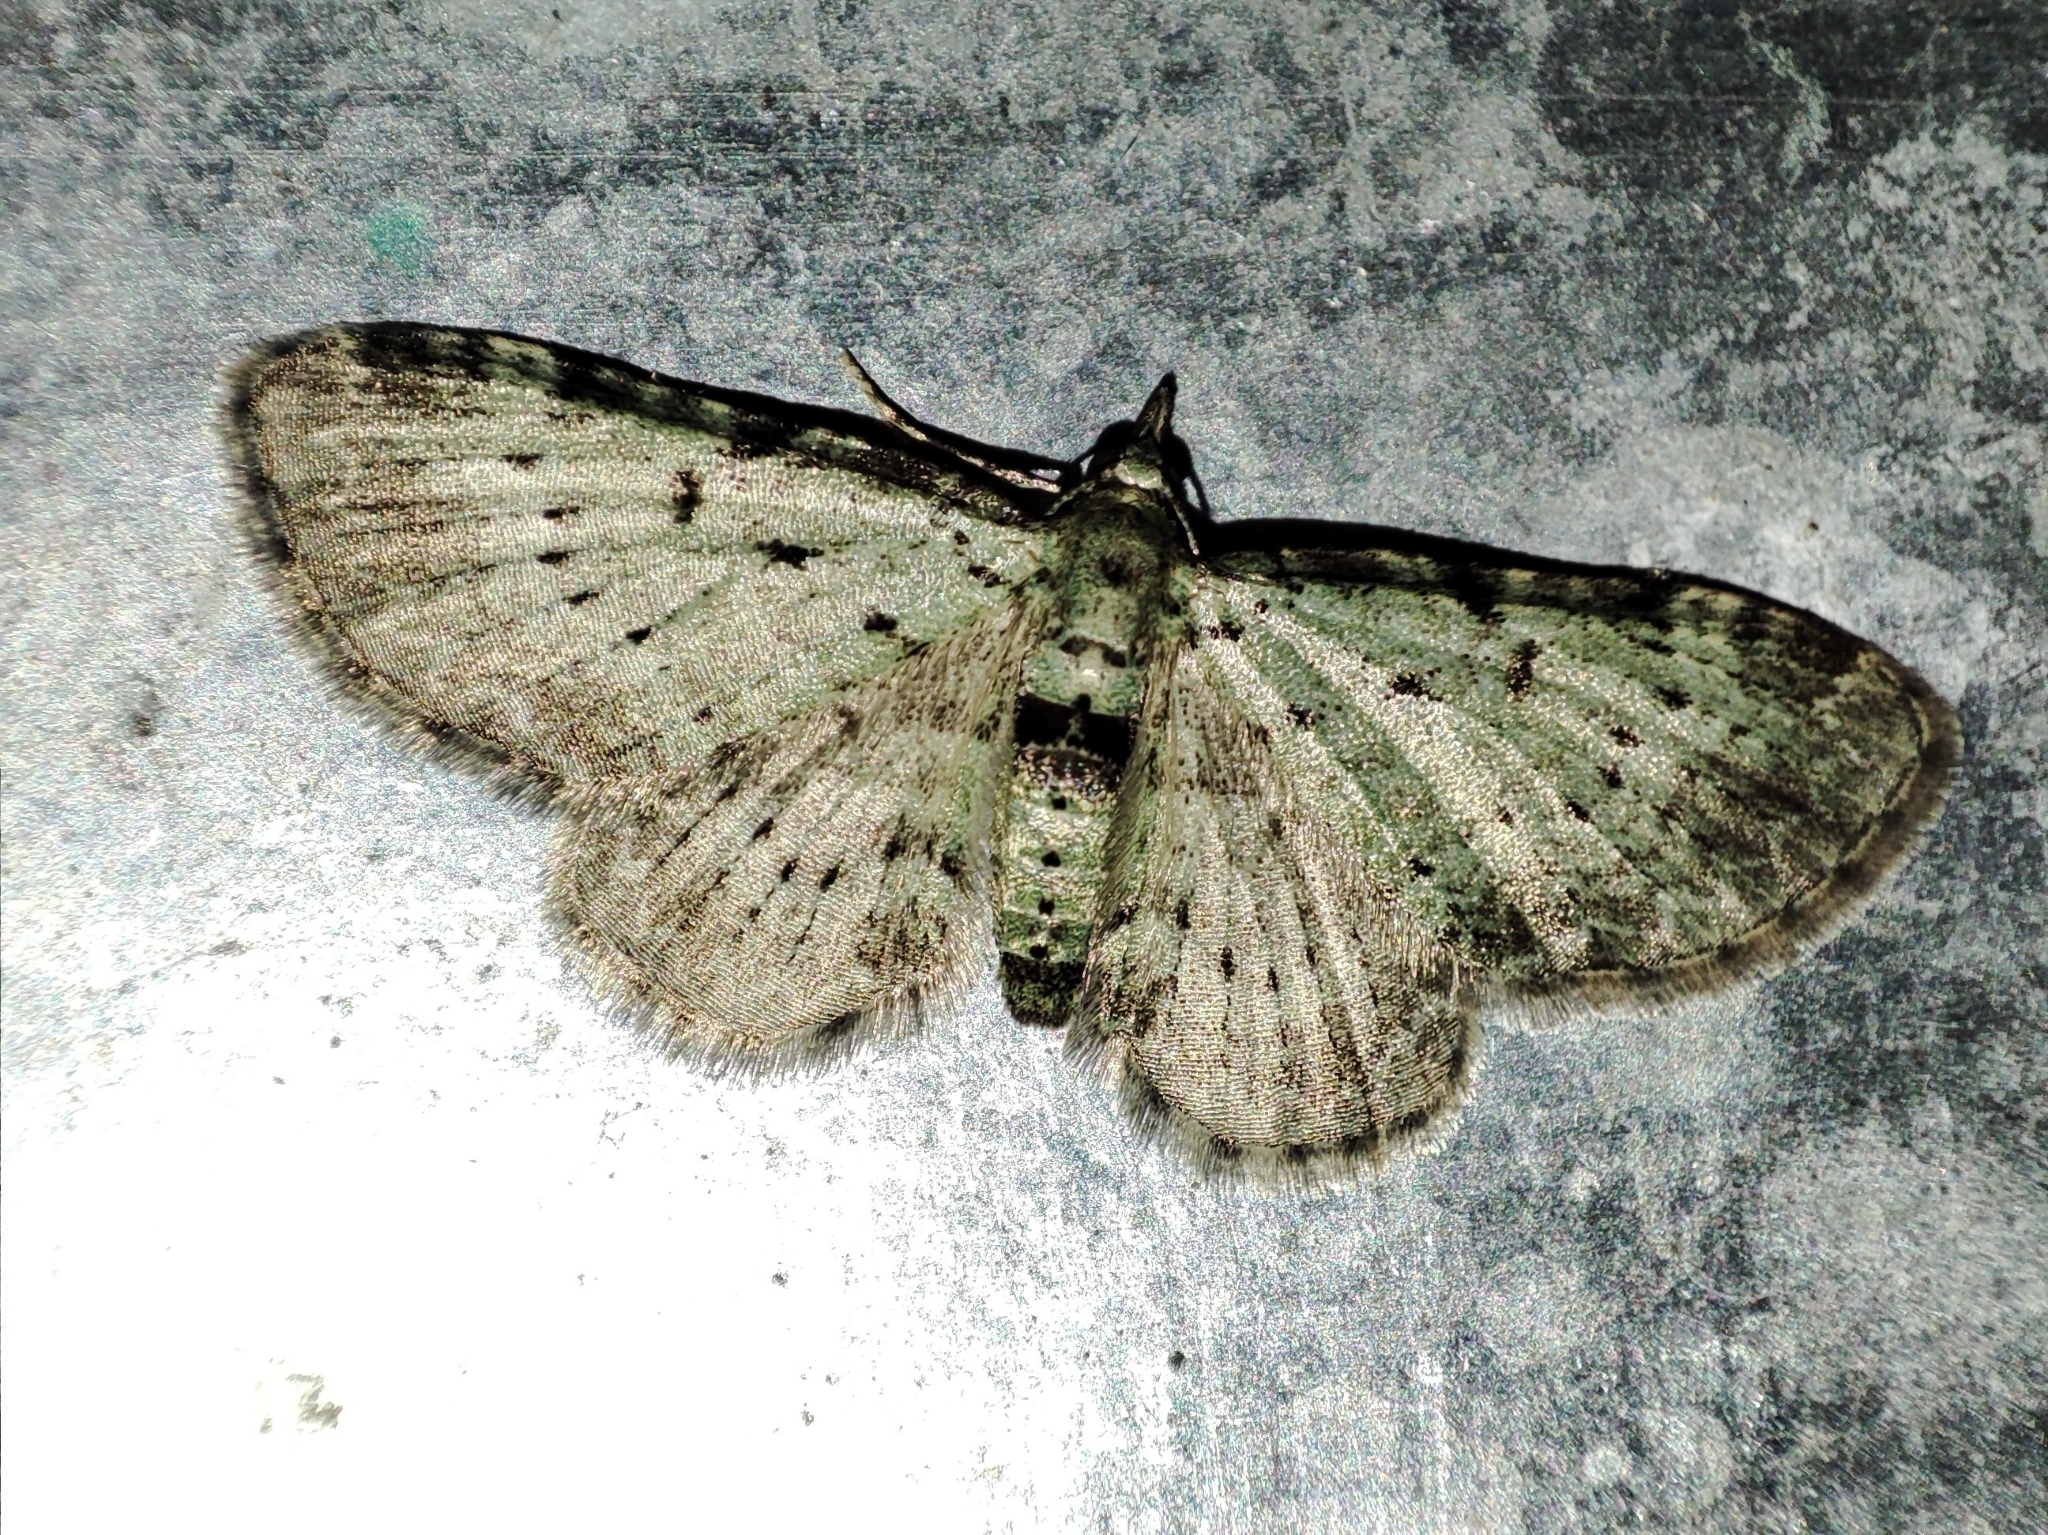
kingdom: Animalia
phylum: Arthropoda
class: Insecta
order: Lepidoptera
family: Geometridae
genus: Pasiphila
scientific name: Pasiphila debiliata
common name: Bilberry pug
